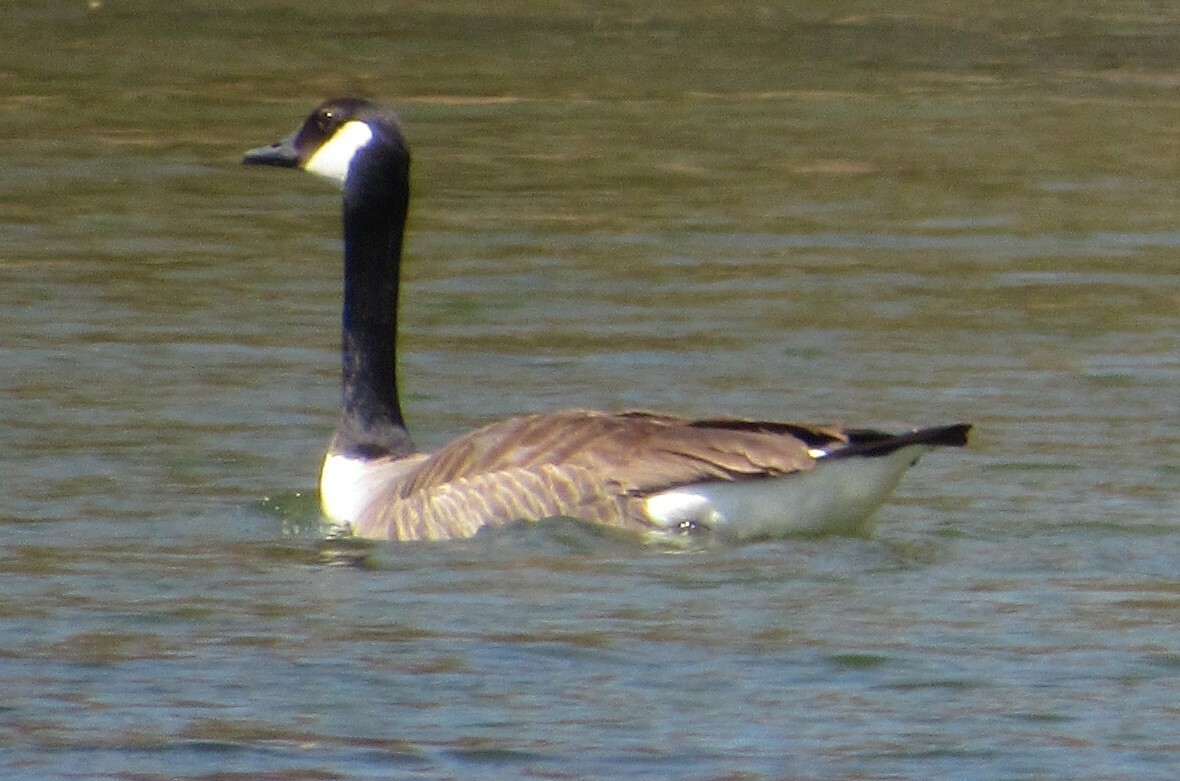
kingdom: Animalia
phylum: Chordata
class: Aves
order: Anseriformes
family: Anatidae
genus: Branta
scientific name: Branta canadensis
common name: Canada goose
